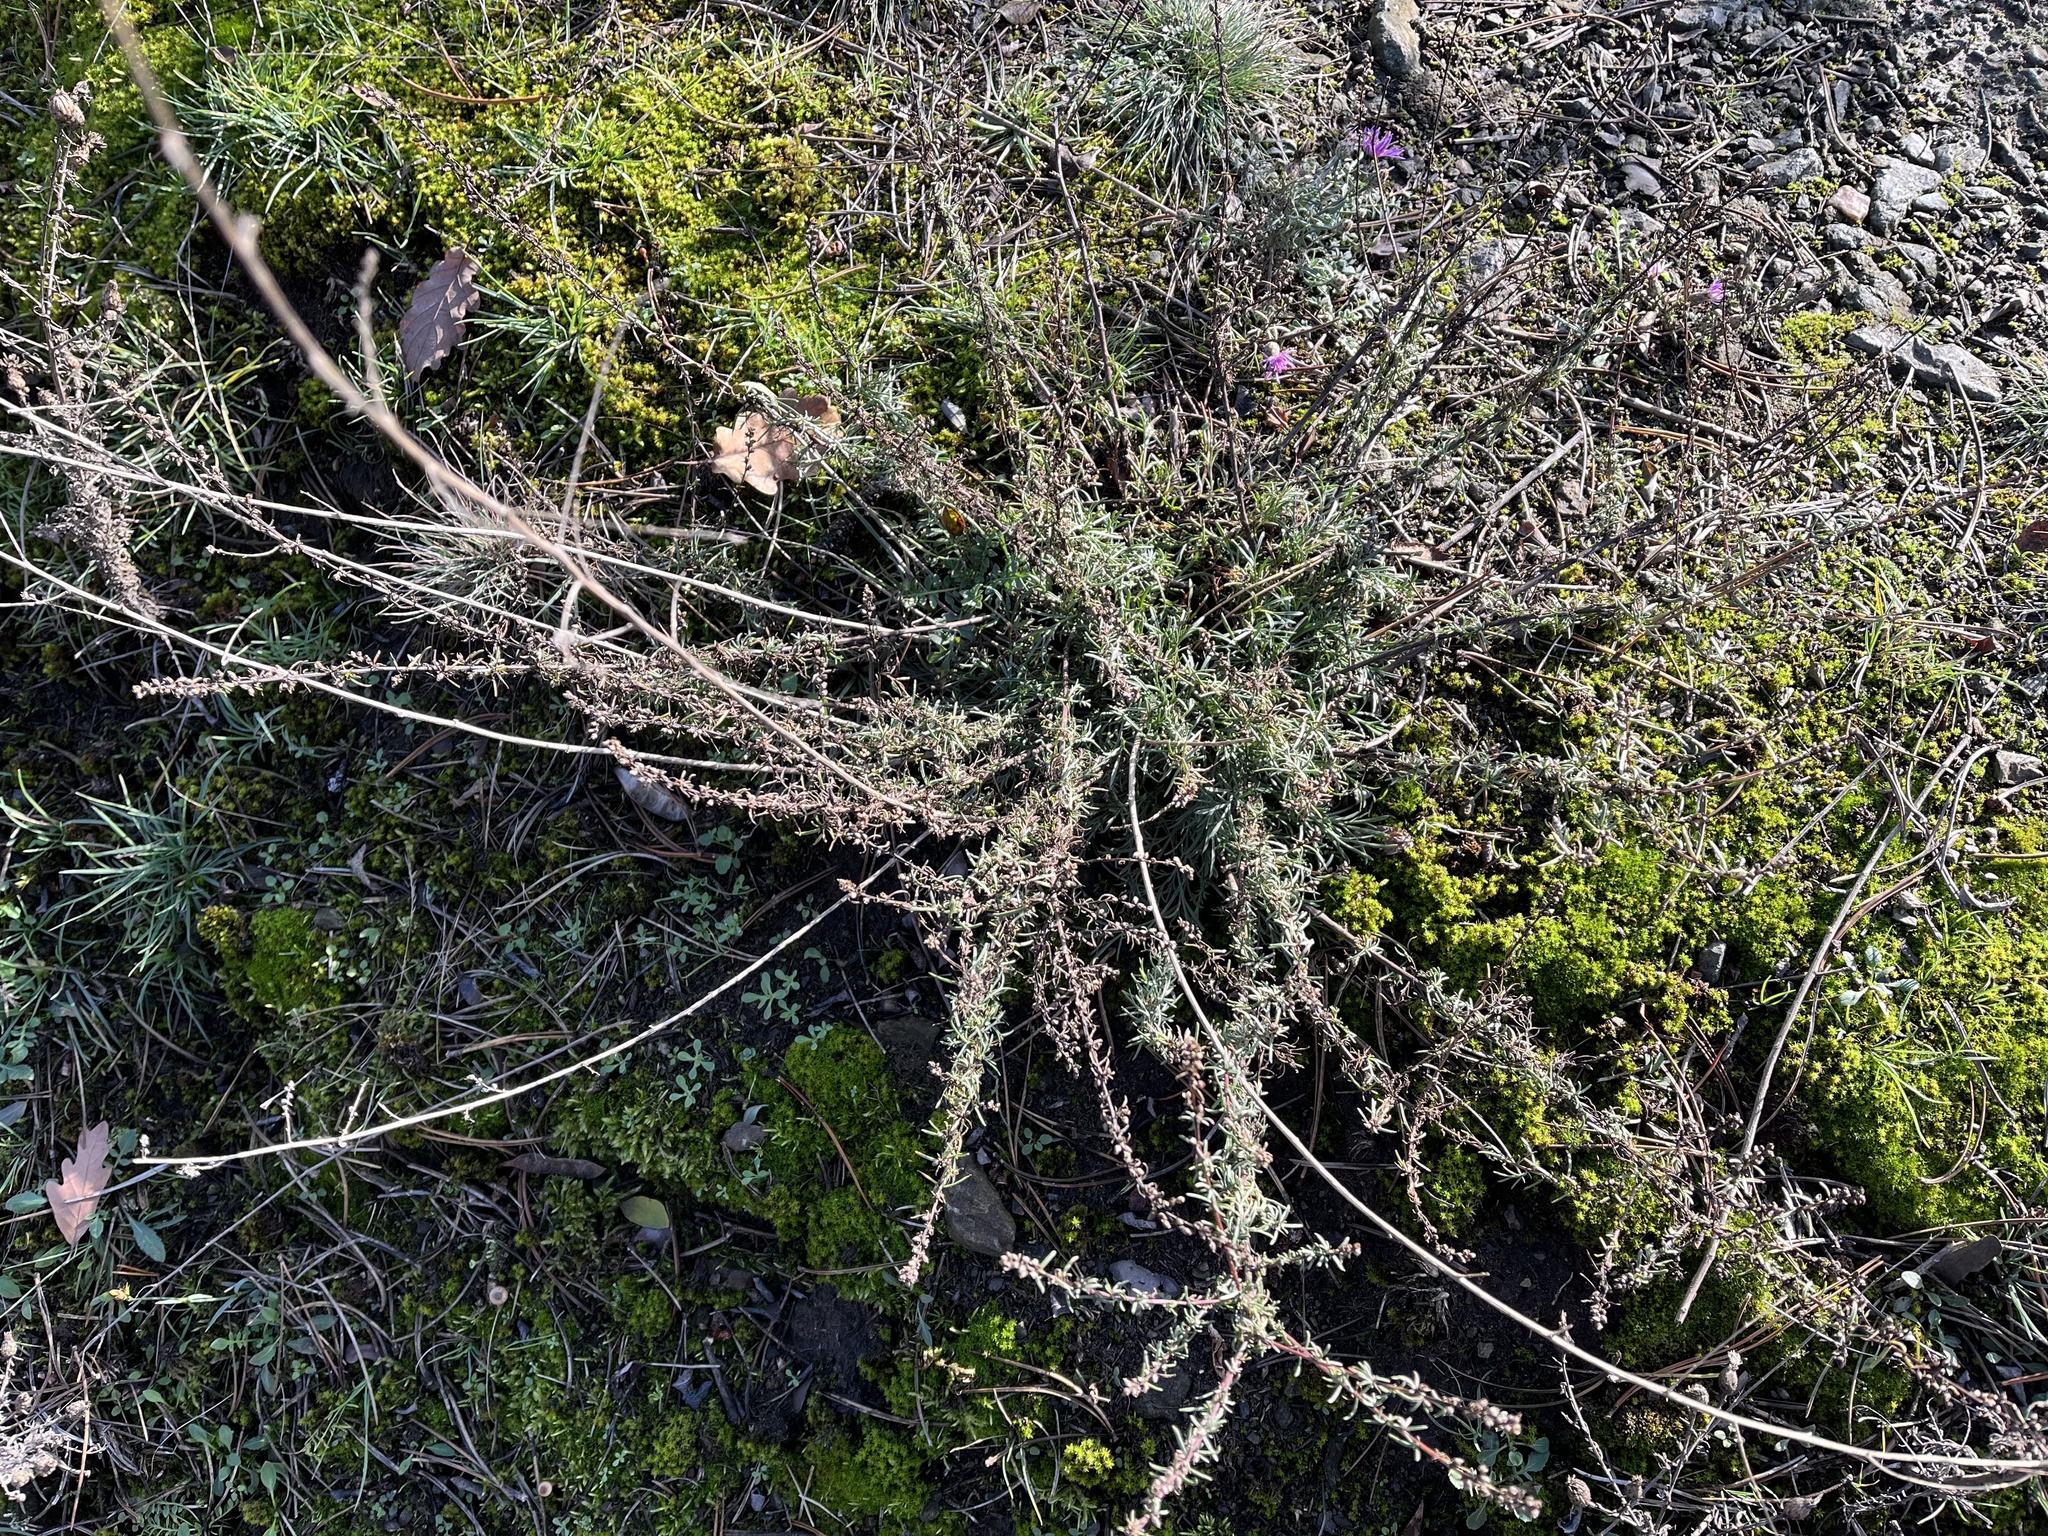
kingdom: Plantae
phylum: Tracheophyta
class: Magnoliopsida
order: Asterales
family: Asteraceae
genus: Artemisia
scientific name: Artemisia campestris
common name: Field wormwood
